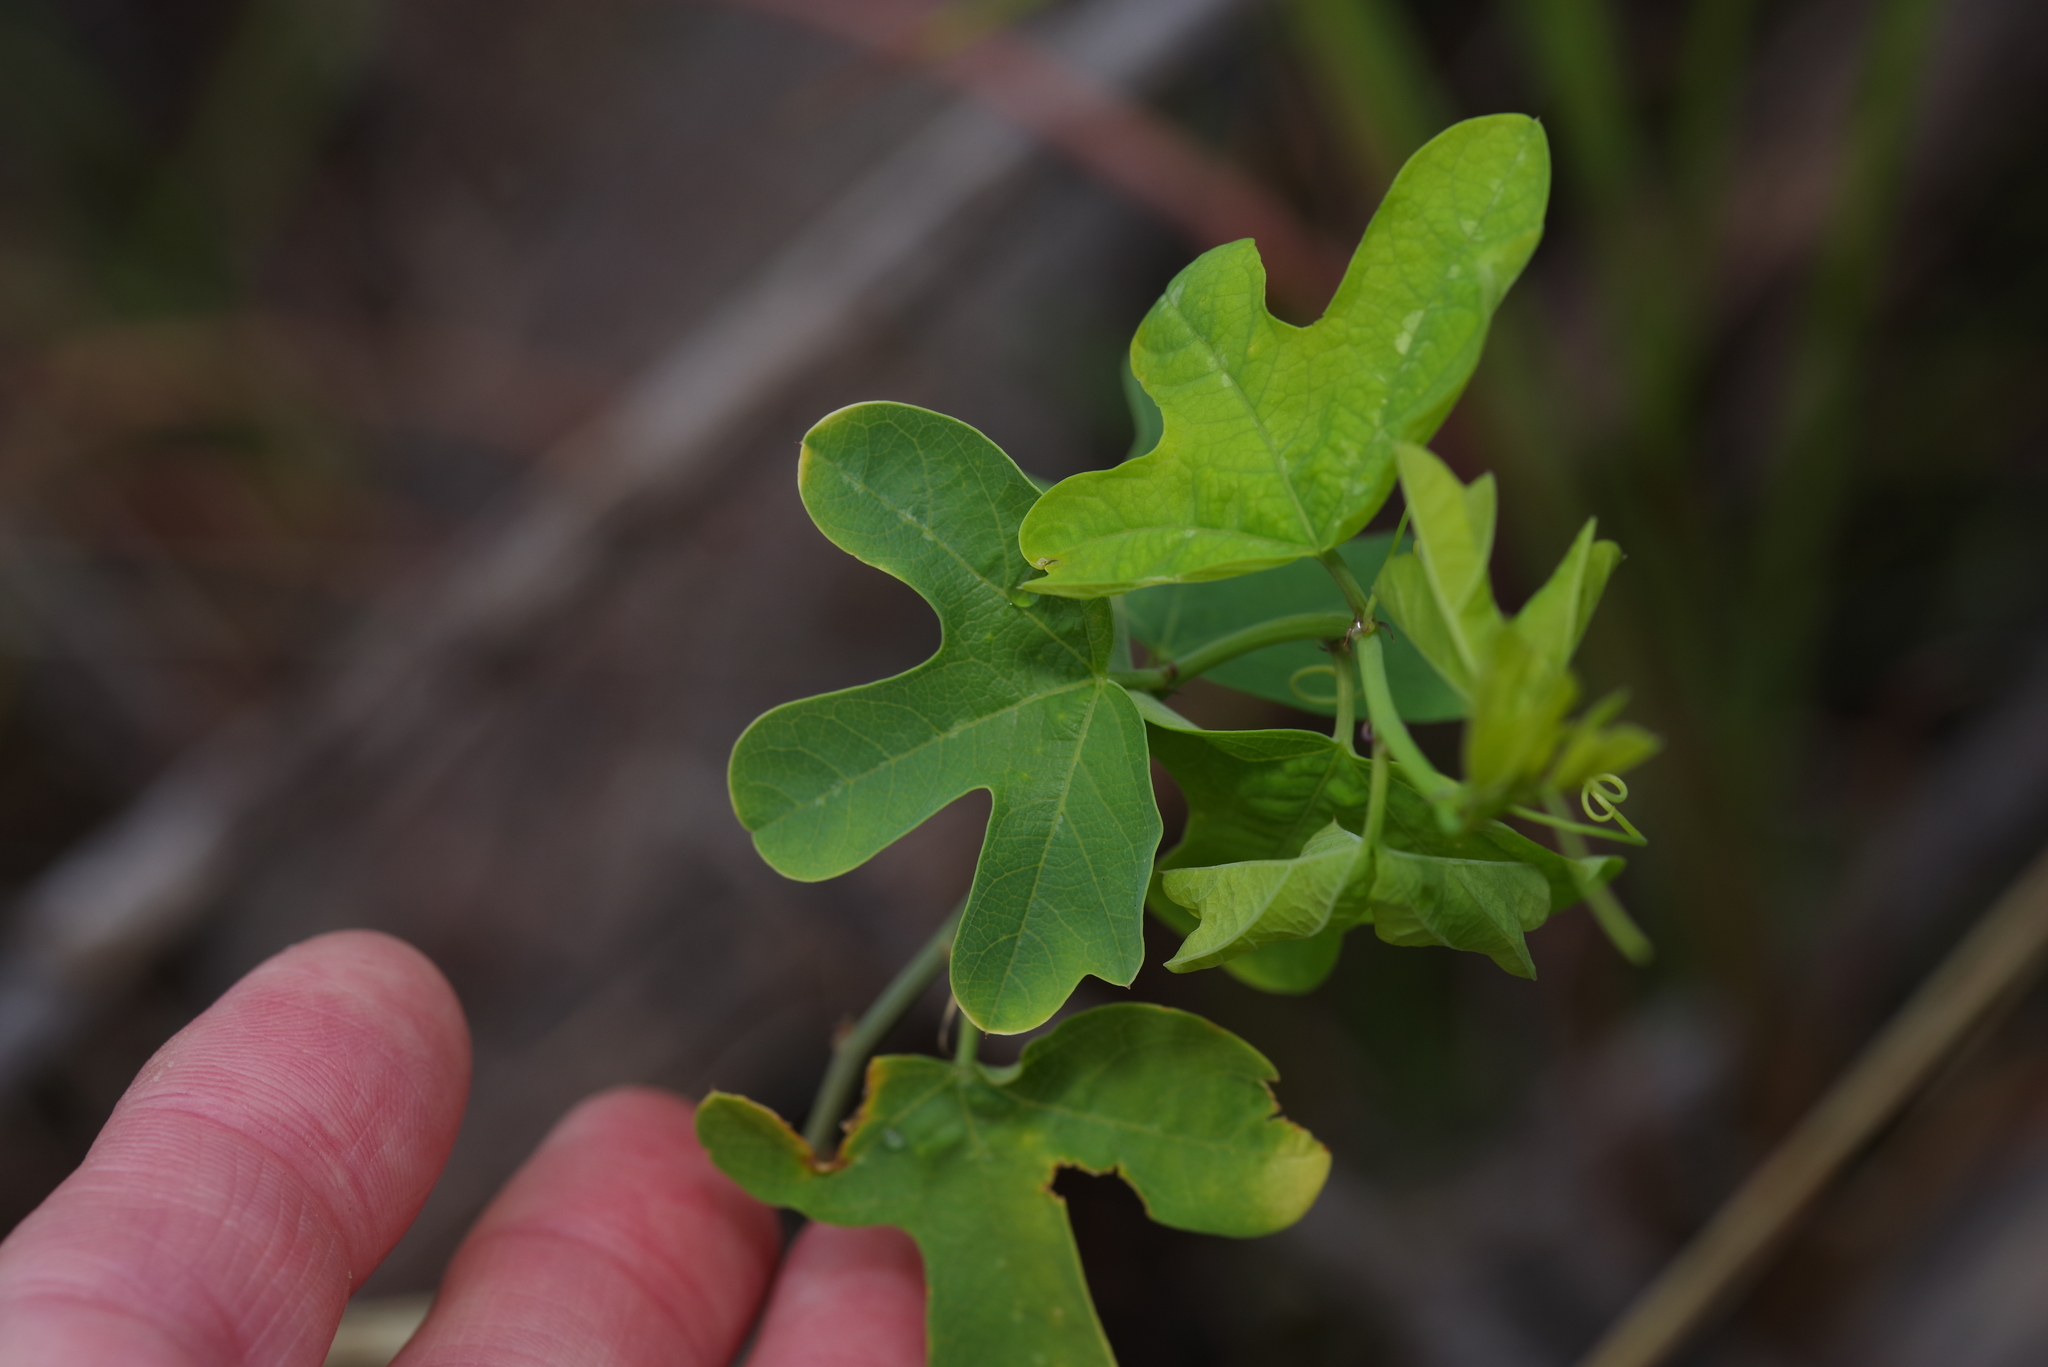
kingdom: Plantae
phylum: Tracheophyta
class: Magnoliopsida
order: Malpighiales
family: Passifloraceae
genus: Passiflora
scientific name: Passiflora affinis
